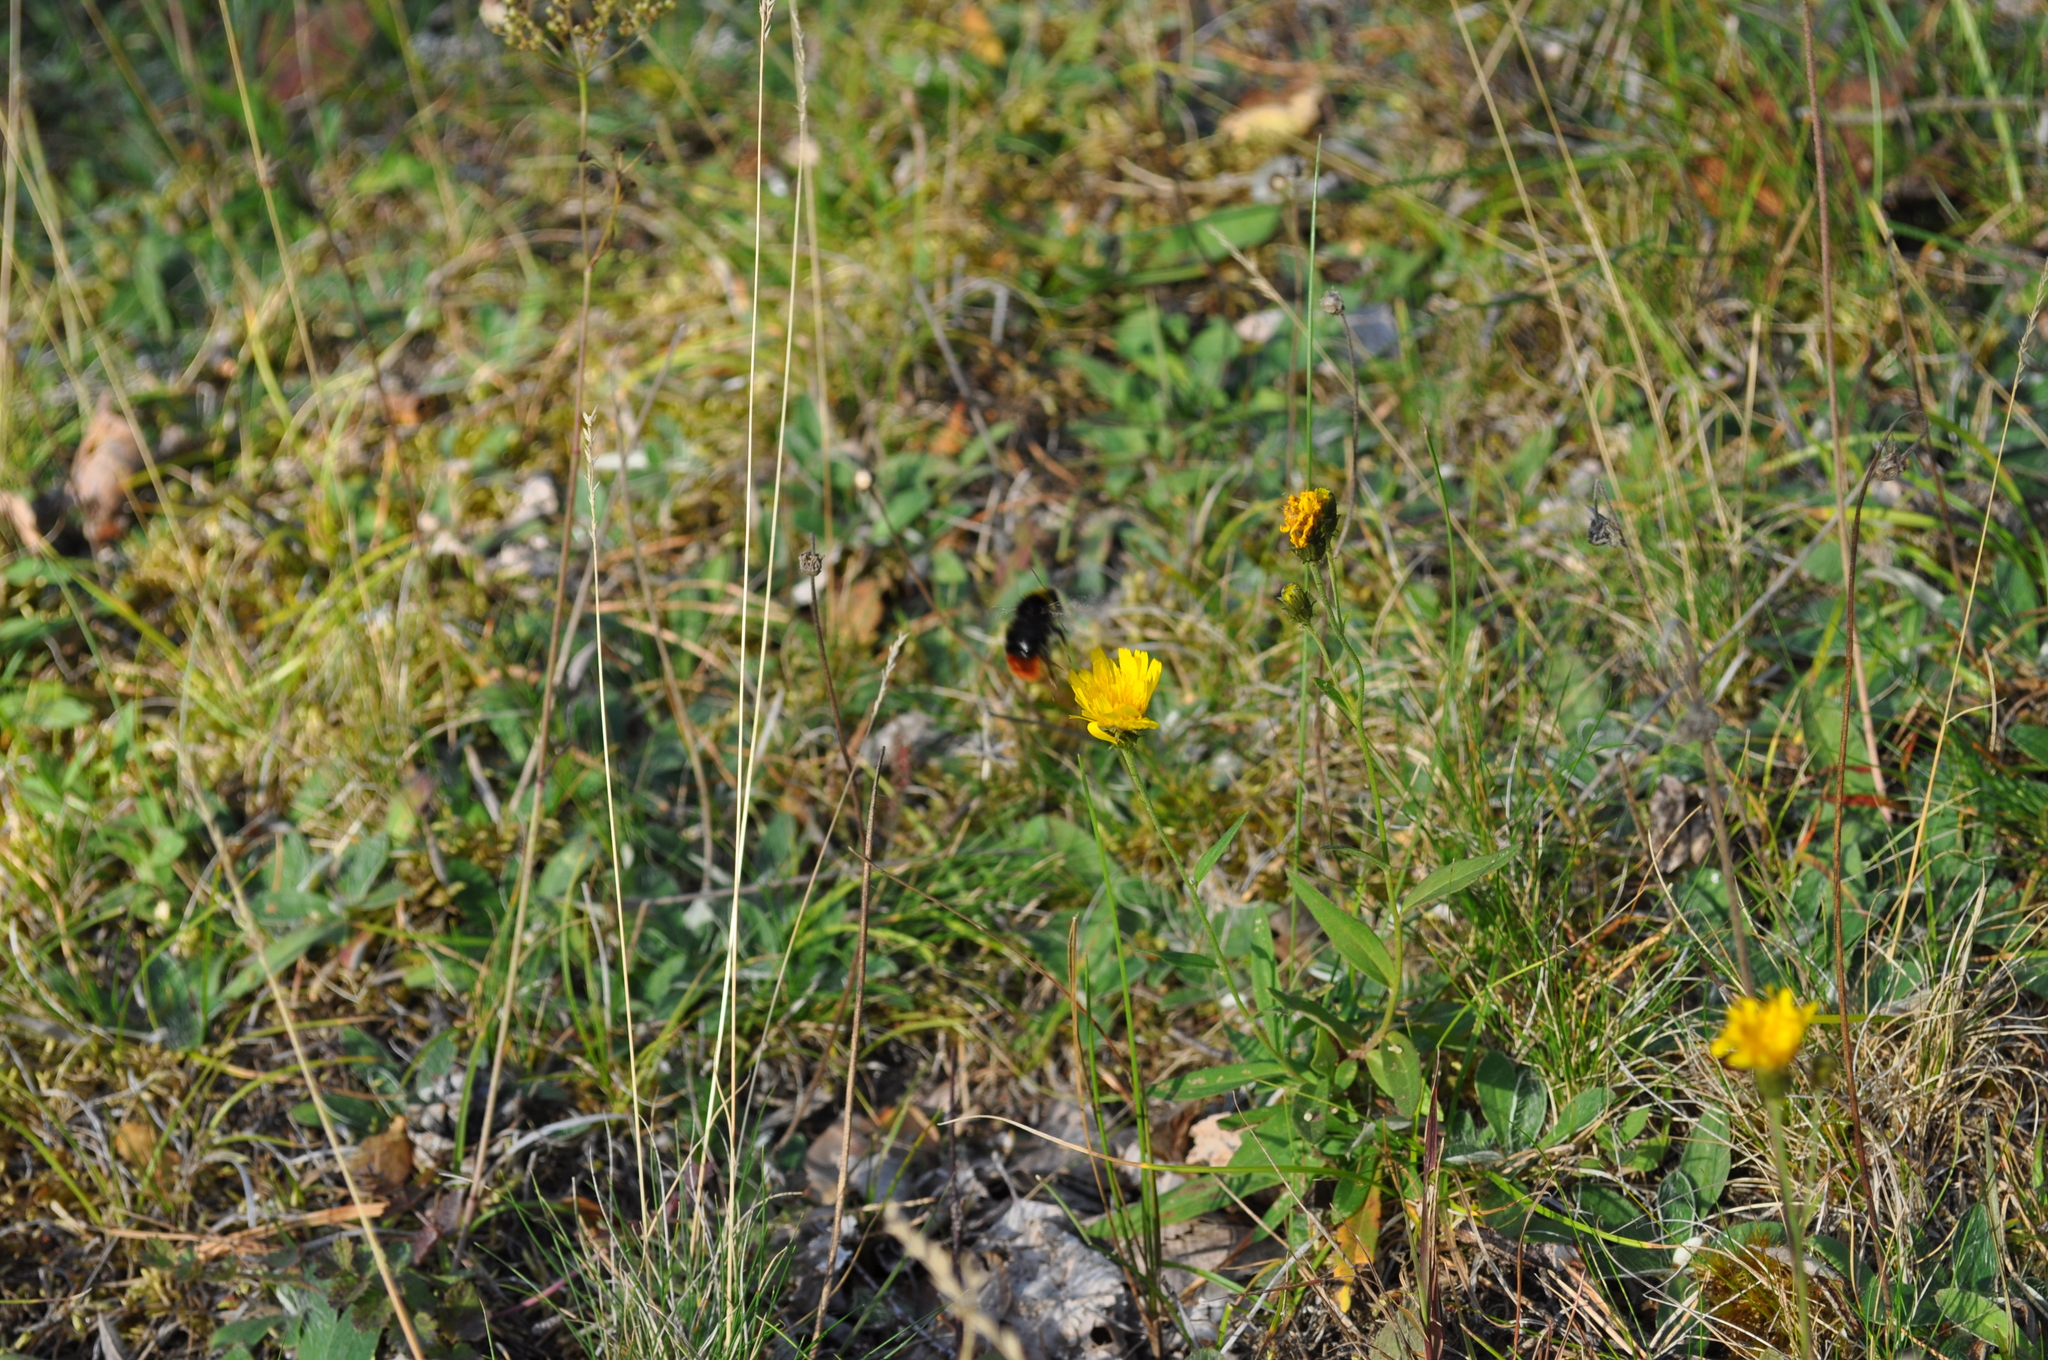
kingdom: Animalia
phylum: Arthropoda
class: Insecta
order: Hymenoptera
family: Apidae
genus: Bombus
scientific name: Bombus lapidarius
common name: Large red-tailed humble-bee
